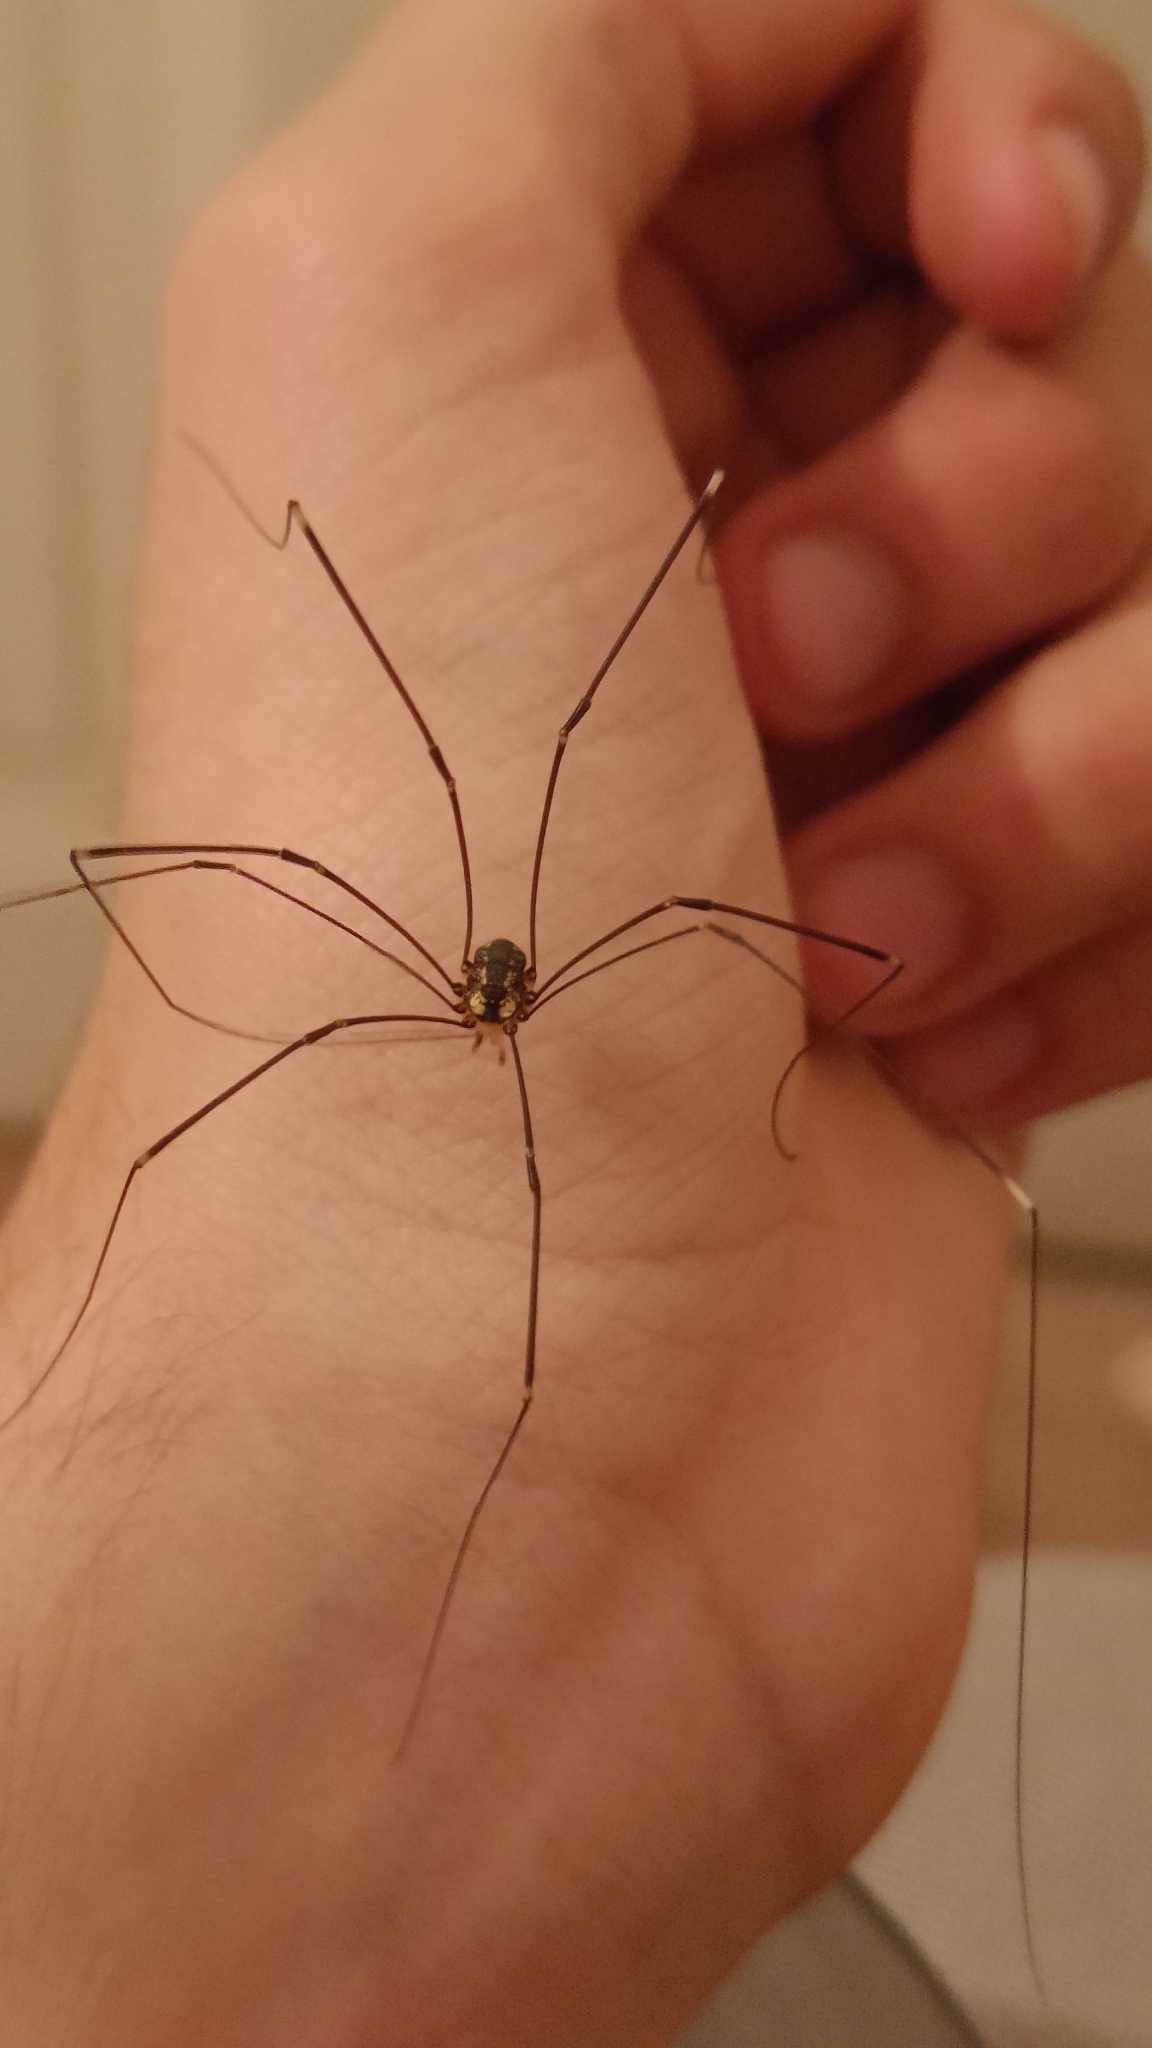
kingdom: Animalia
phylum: Arthropoda
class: Arachnida
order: Opiliones
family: Sclerosomatidae
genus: Leiobunum
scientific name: Leiobunum
